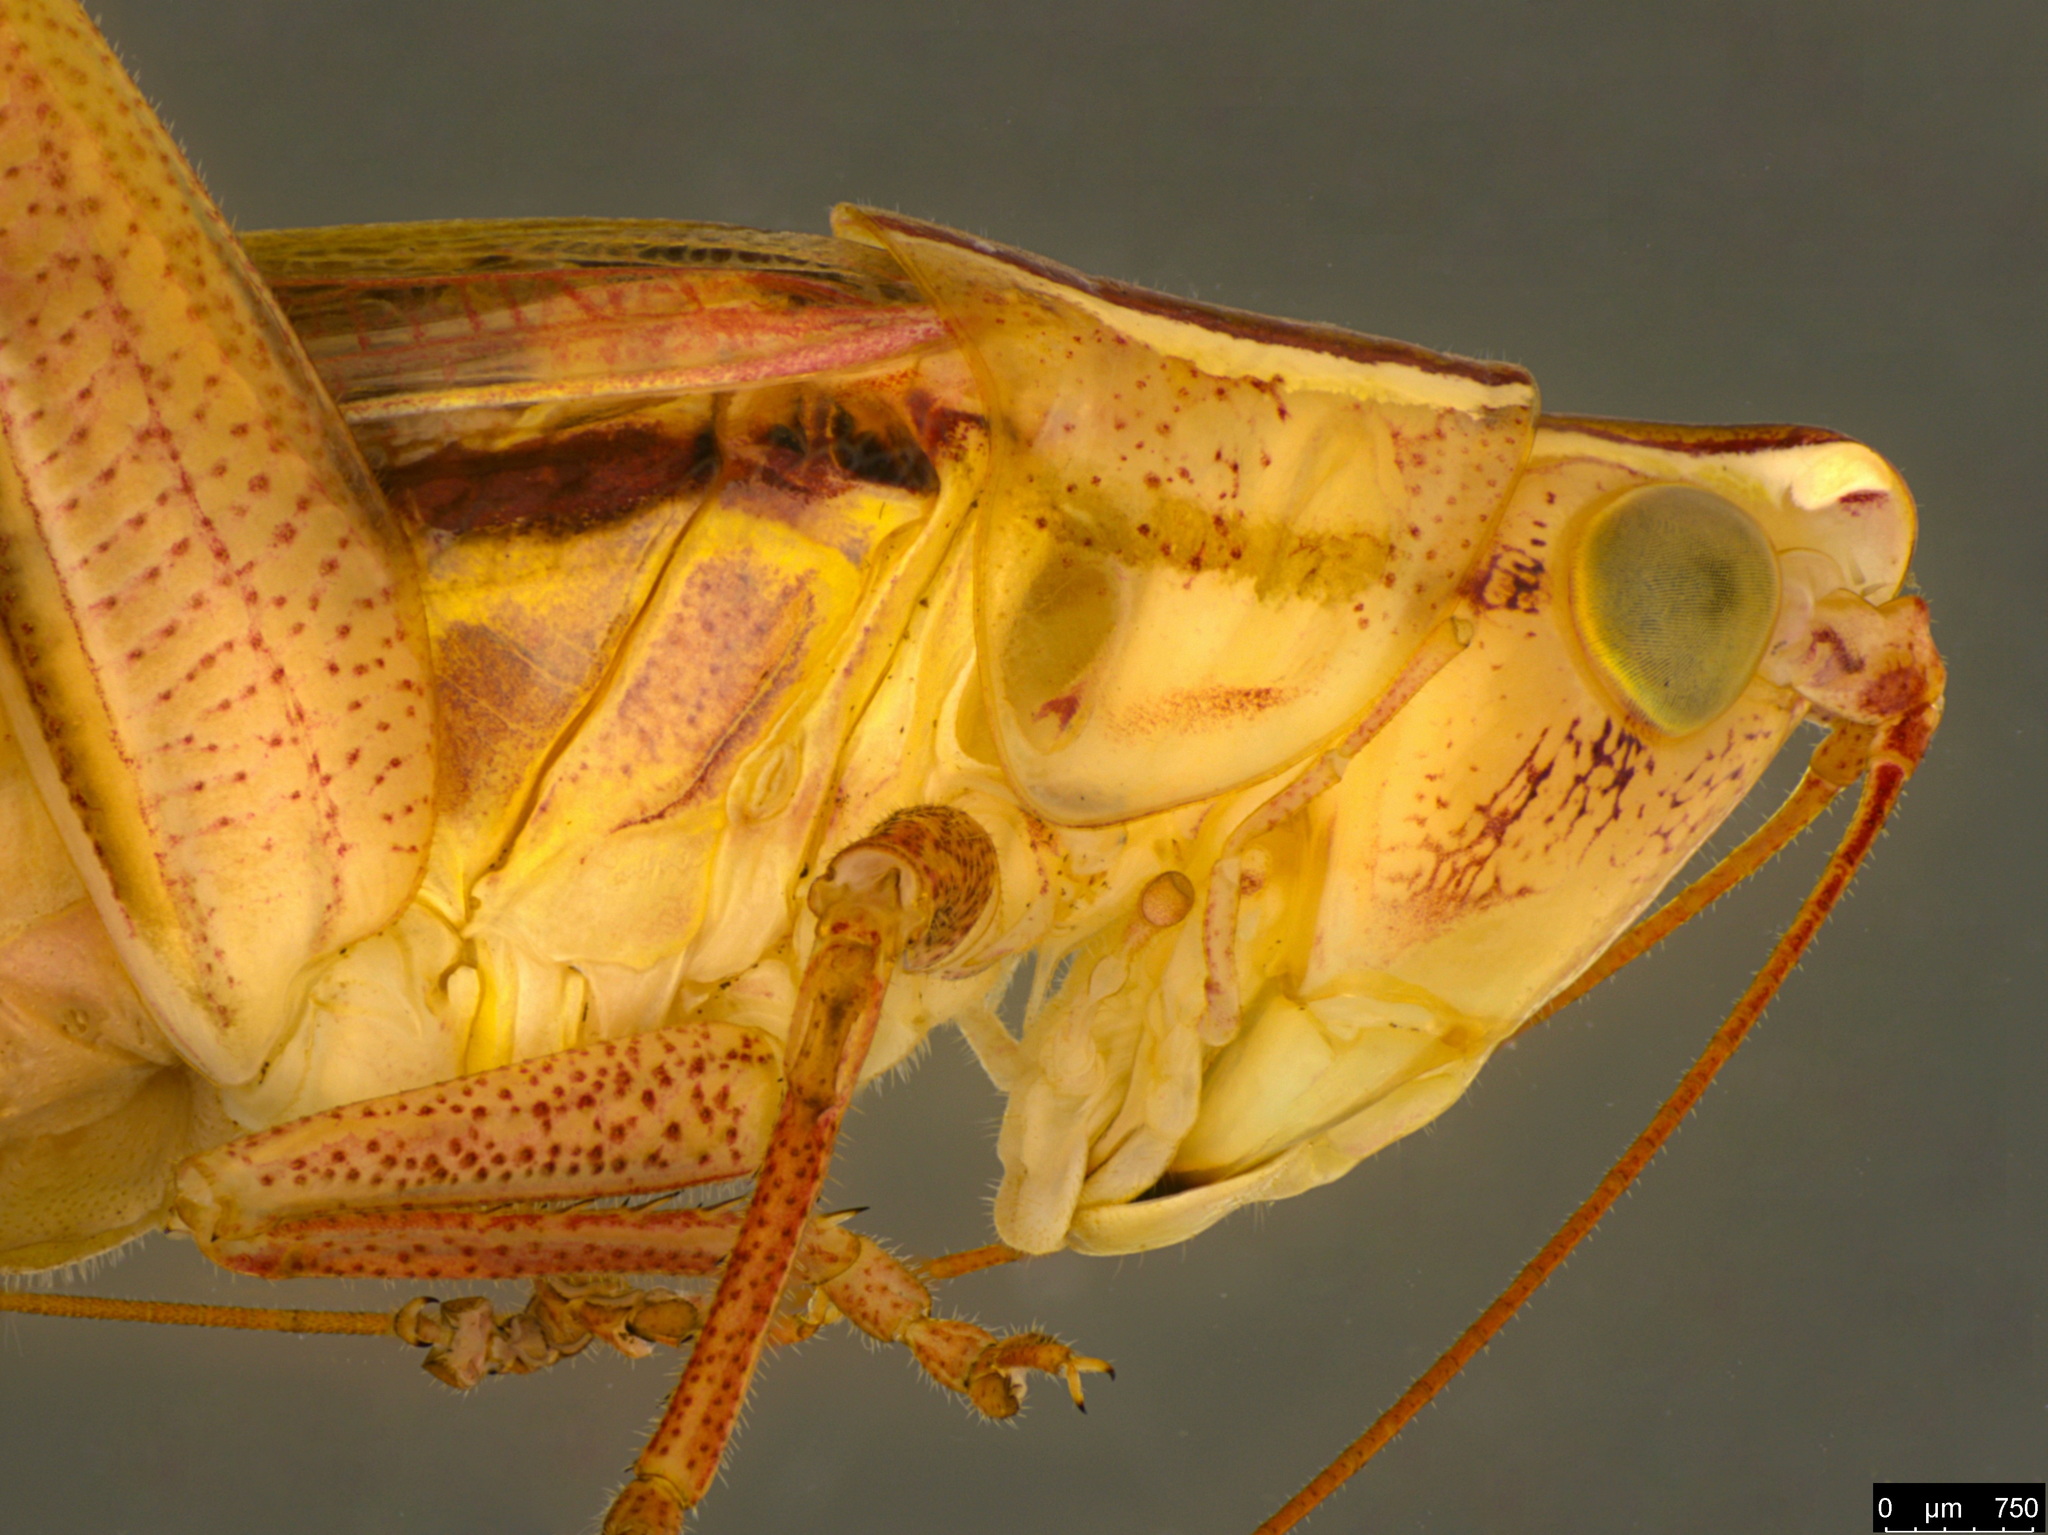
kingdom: Animalia
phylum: Arthropoda
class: Insecta
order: Orthoptera
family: Tettigoniidae
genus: Conocephalus
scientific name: Conocephalus upoluensis
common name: Upolu meadow katydid
